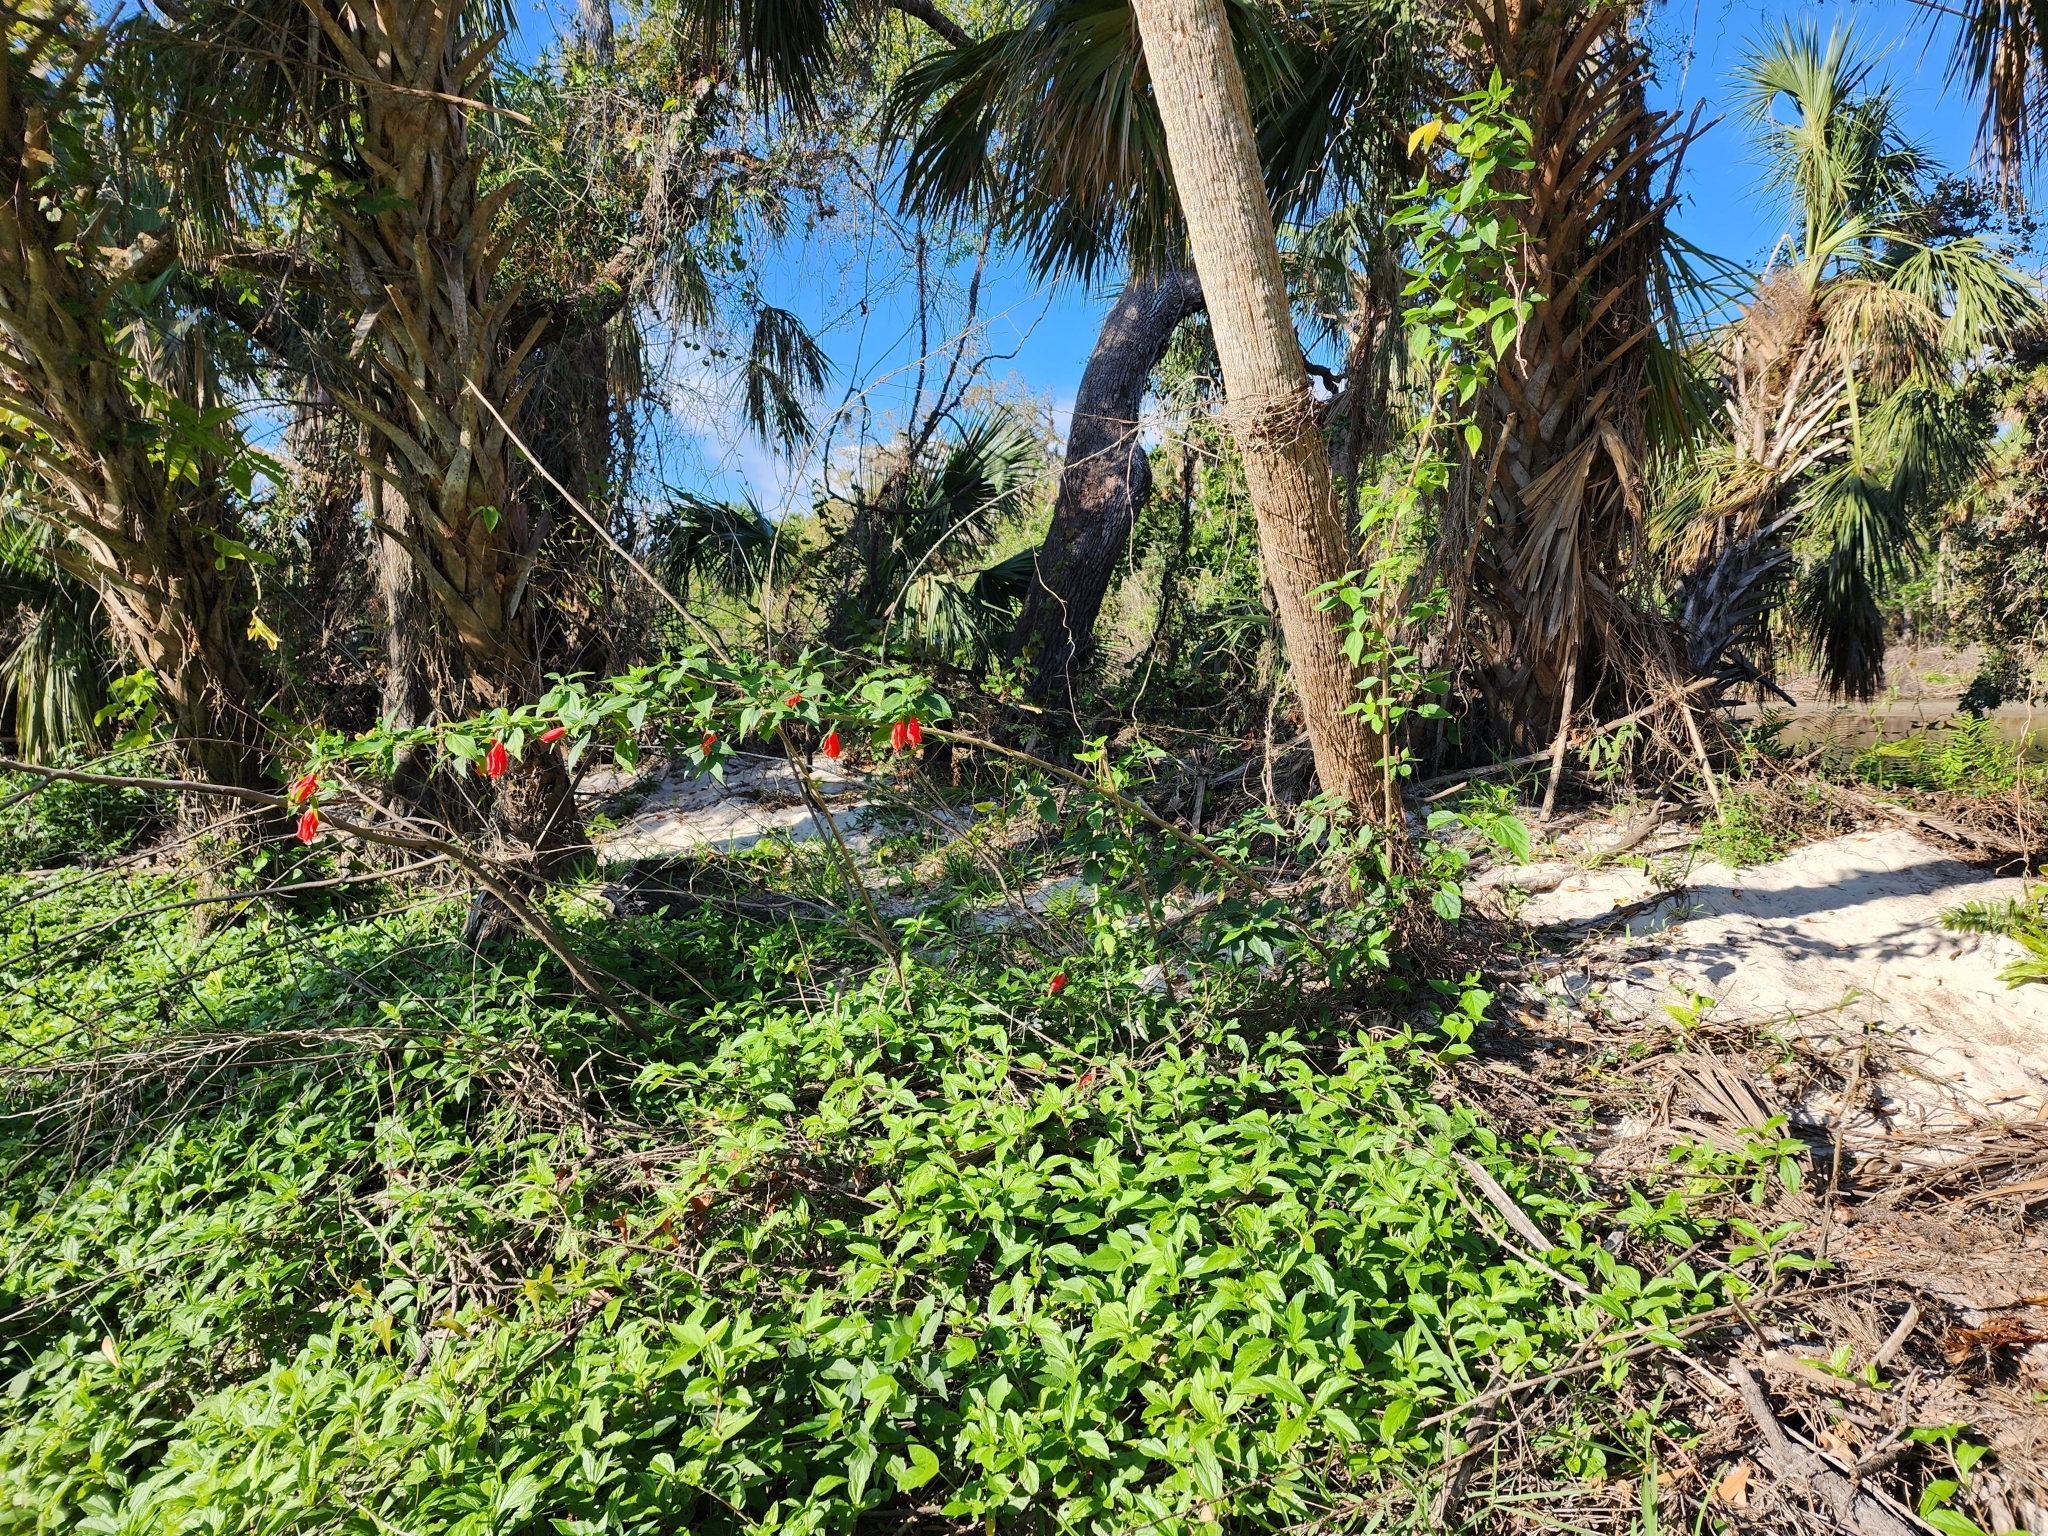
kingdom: Plantae
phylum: Tracheophyta
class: Magnoliopsida
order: Malvales
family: Malvaceae
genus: Malvaviscus
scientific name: Malvaviscus penduliflorus
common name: Mazapan
